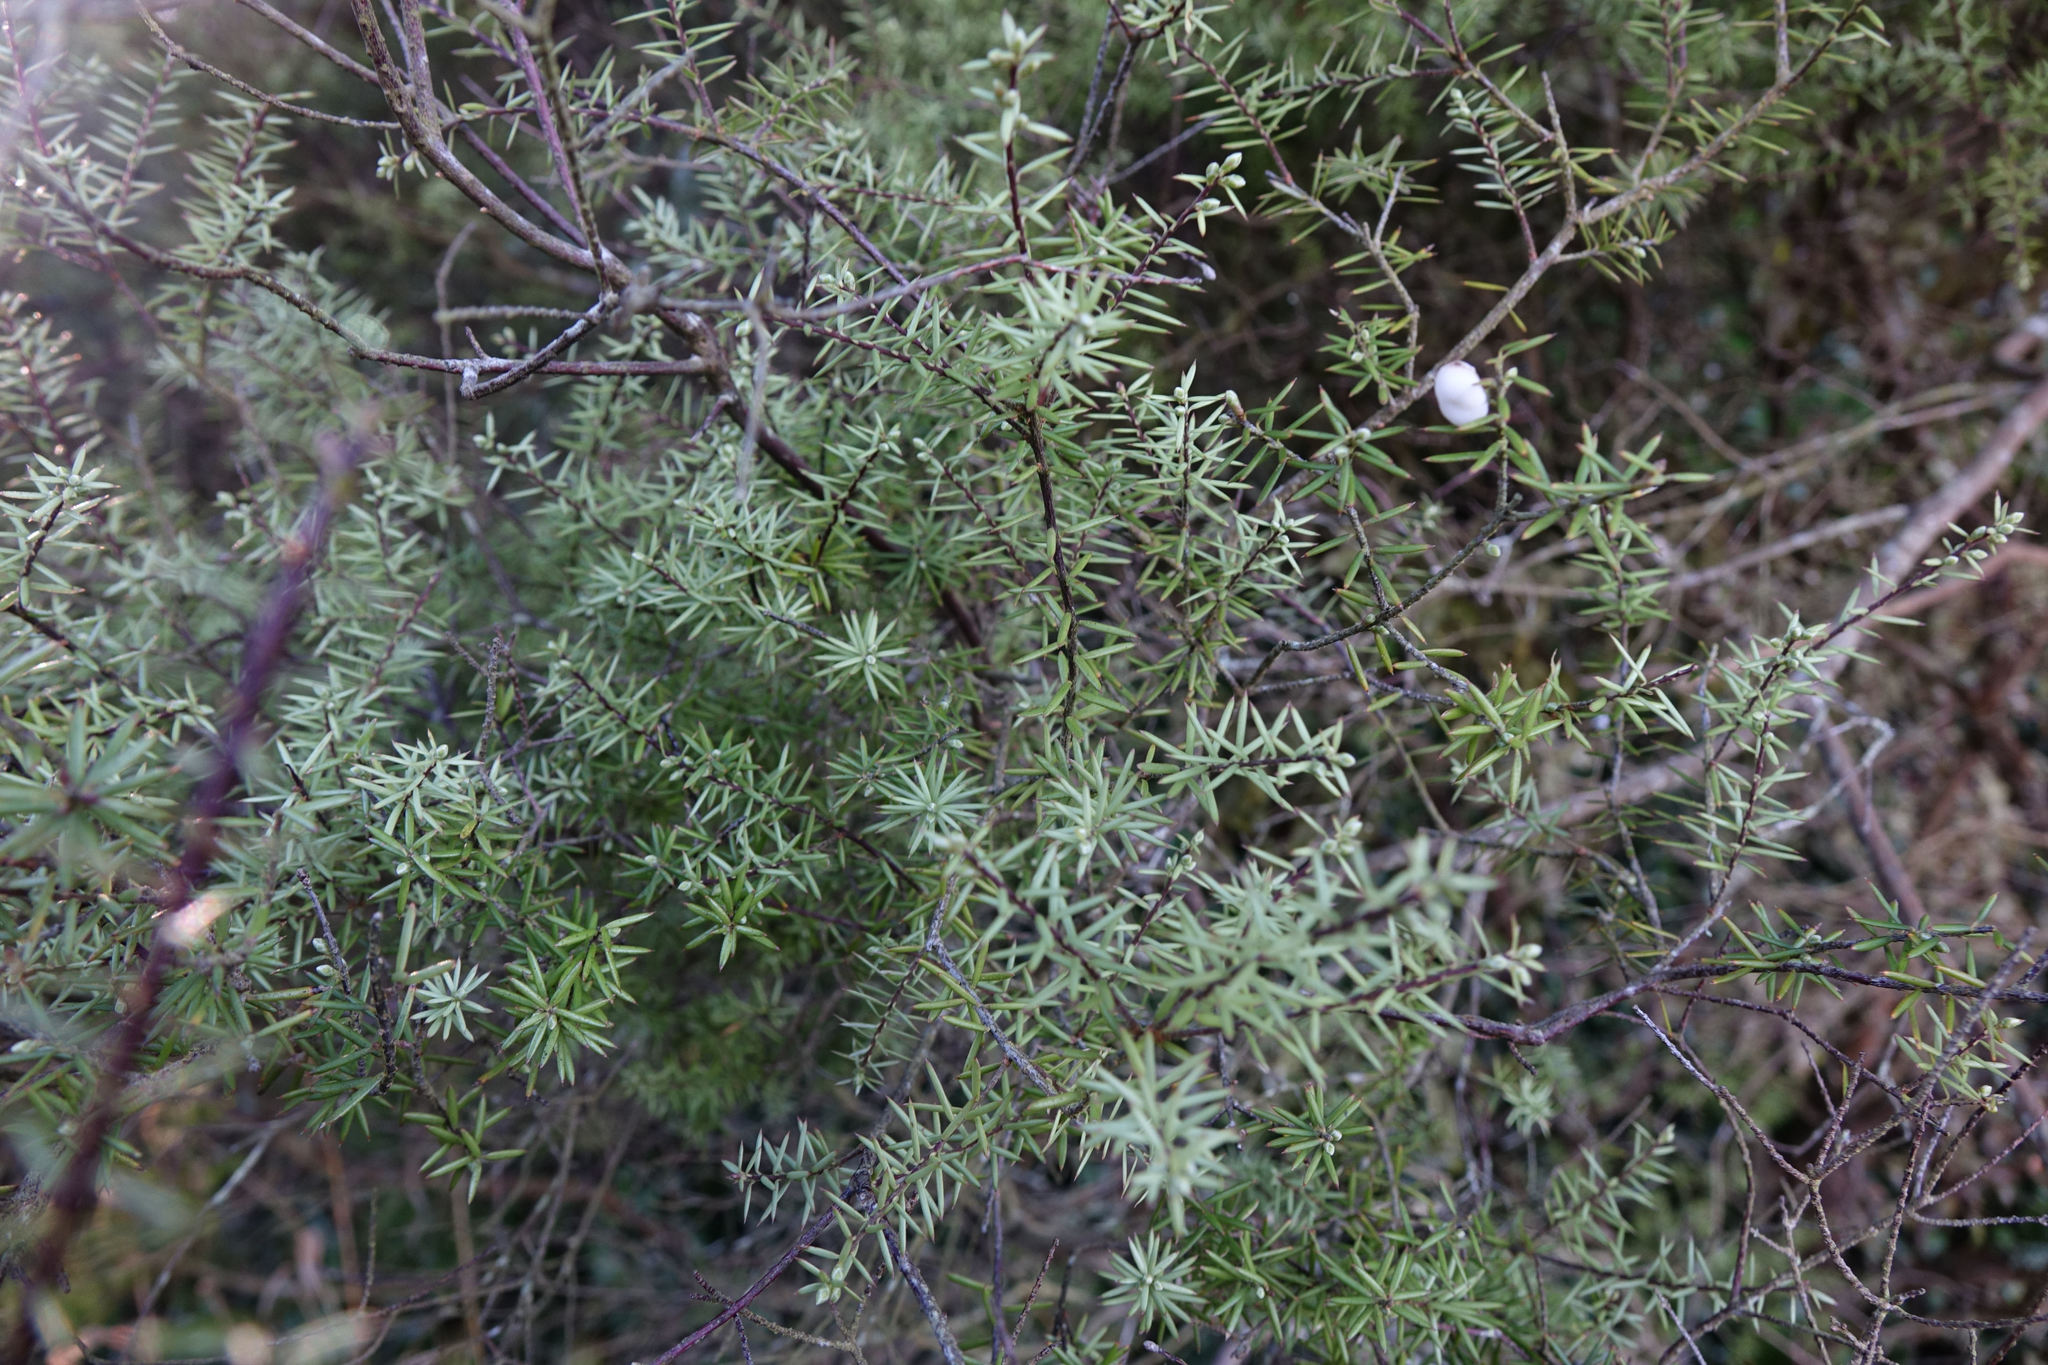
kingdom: Plantae
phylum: Tracheophyta
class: Magnoliopsida
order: Ericales
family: Ericaceae
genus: Leptecophylla
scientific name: Leptecophylla juniperina
